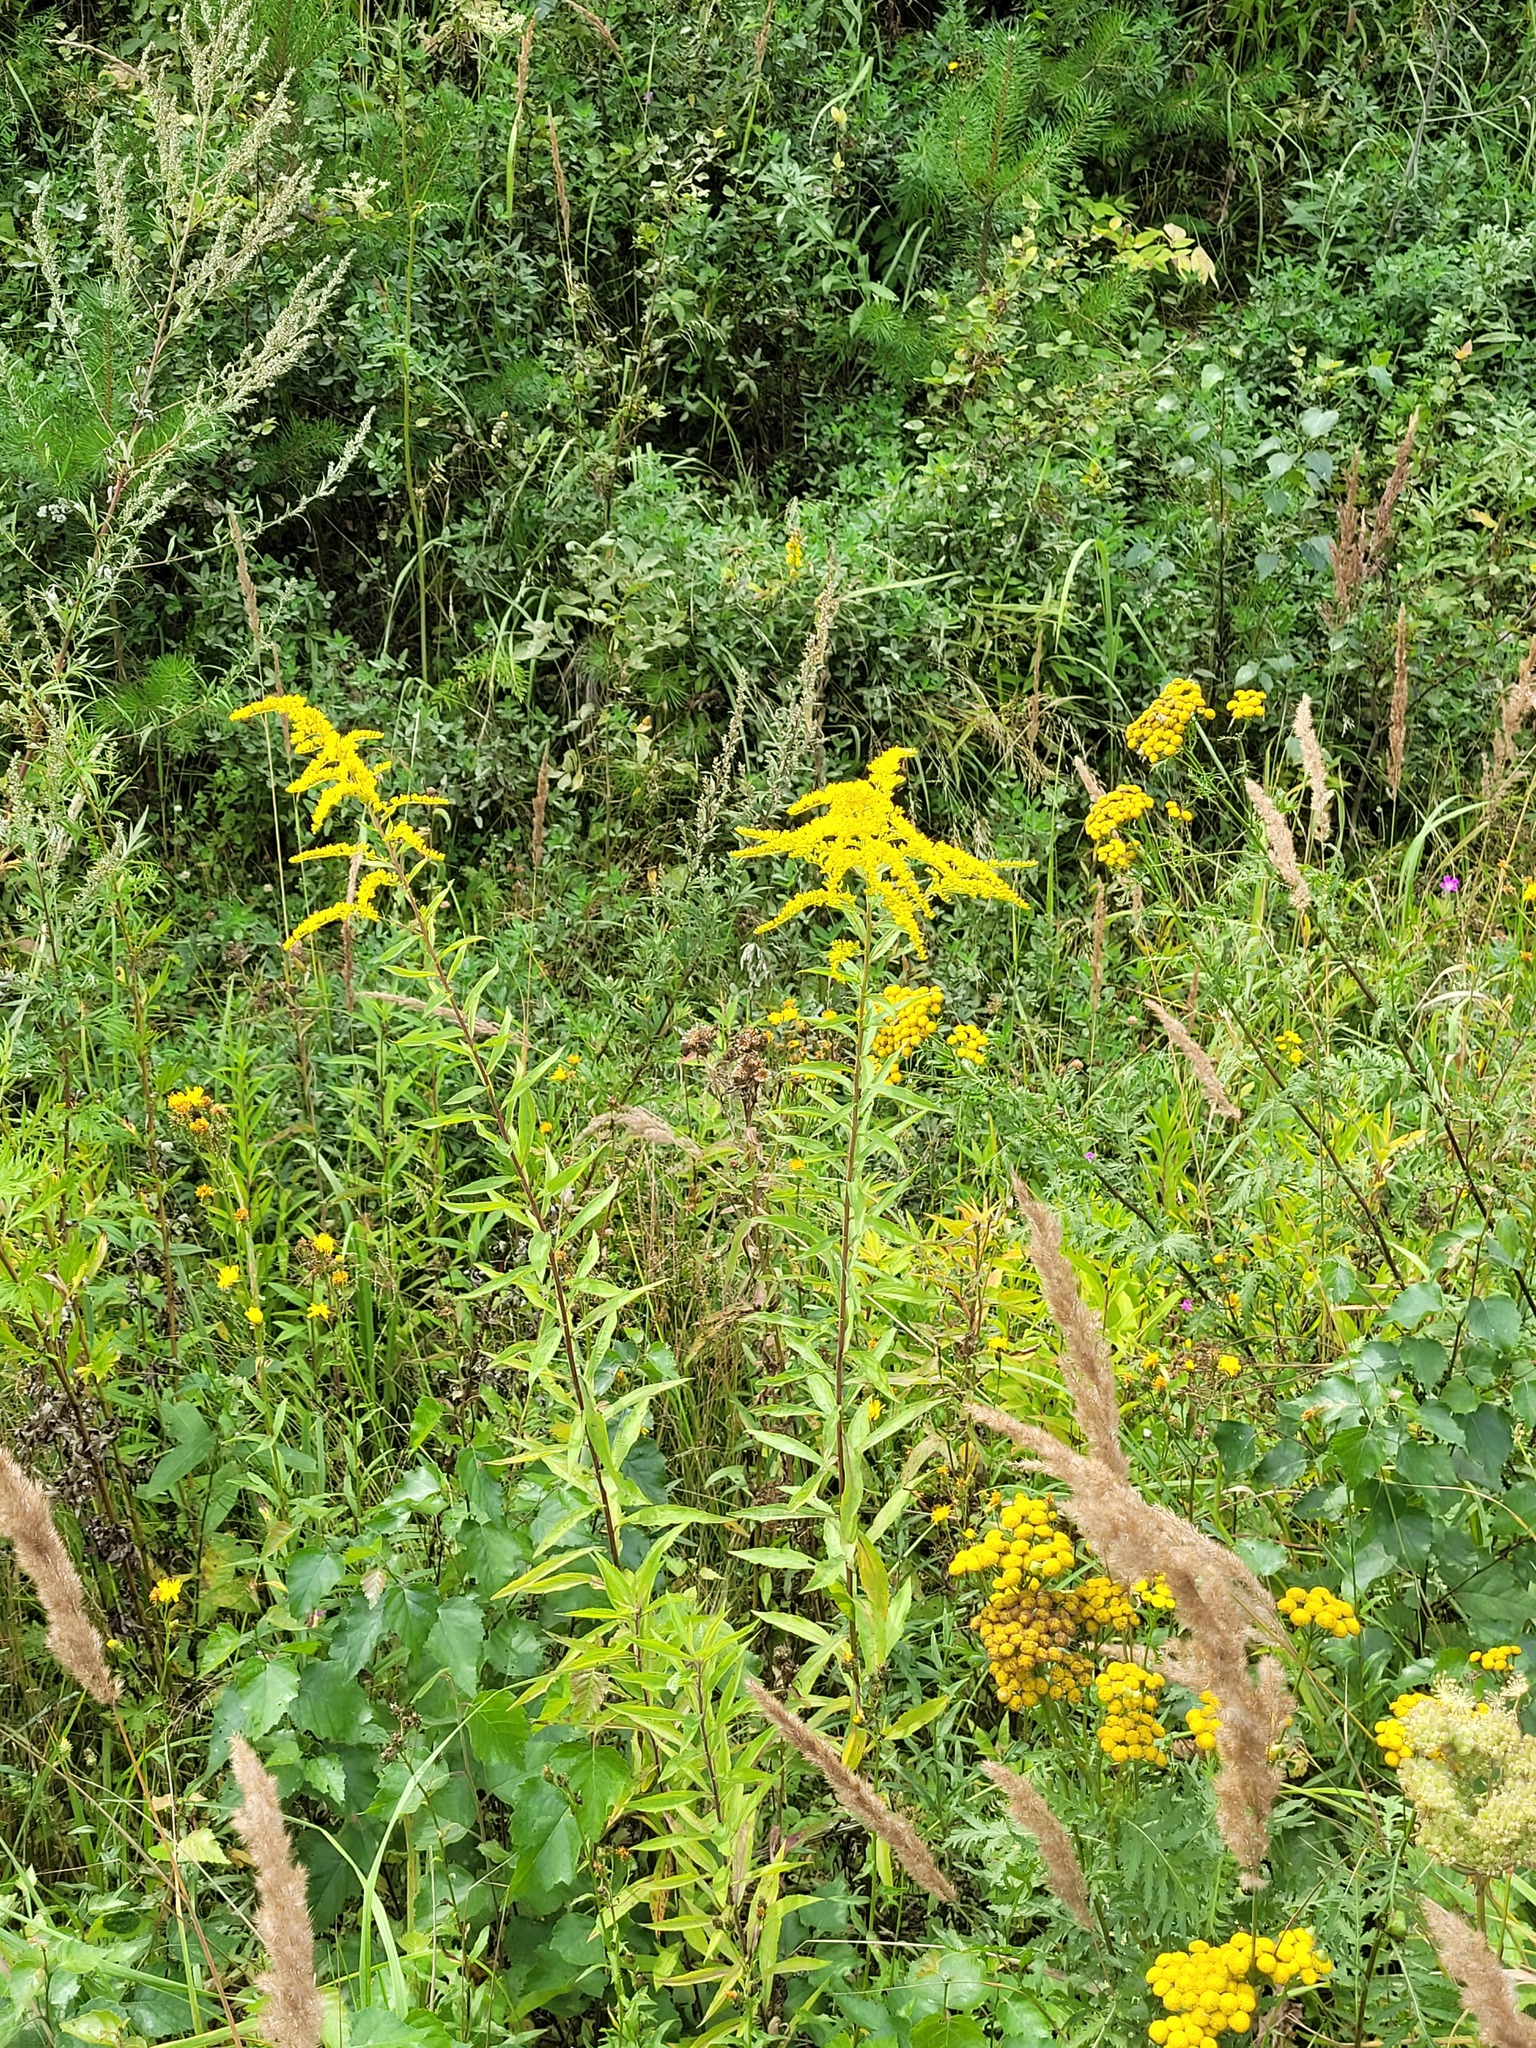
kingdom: Plantae
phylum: Tracheophyta
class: Magnoliopsida
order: Asterales
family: Asteraceae
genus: Solidago
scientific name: Solidago canadensis
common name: Canada goldenrod
